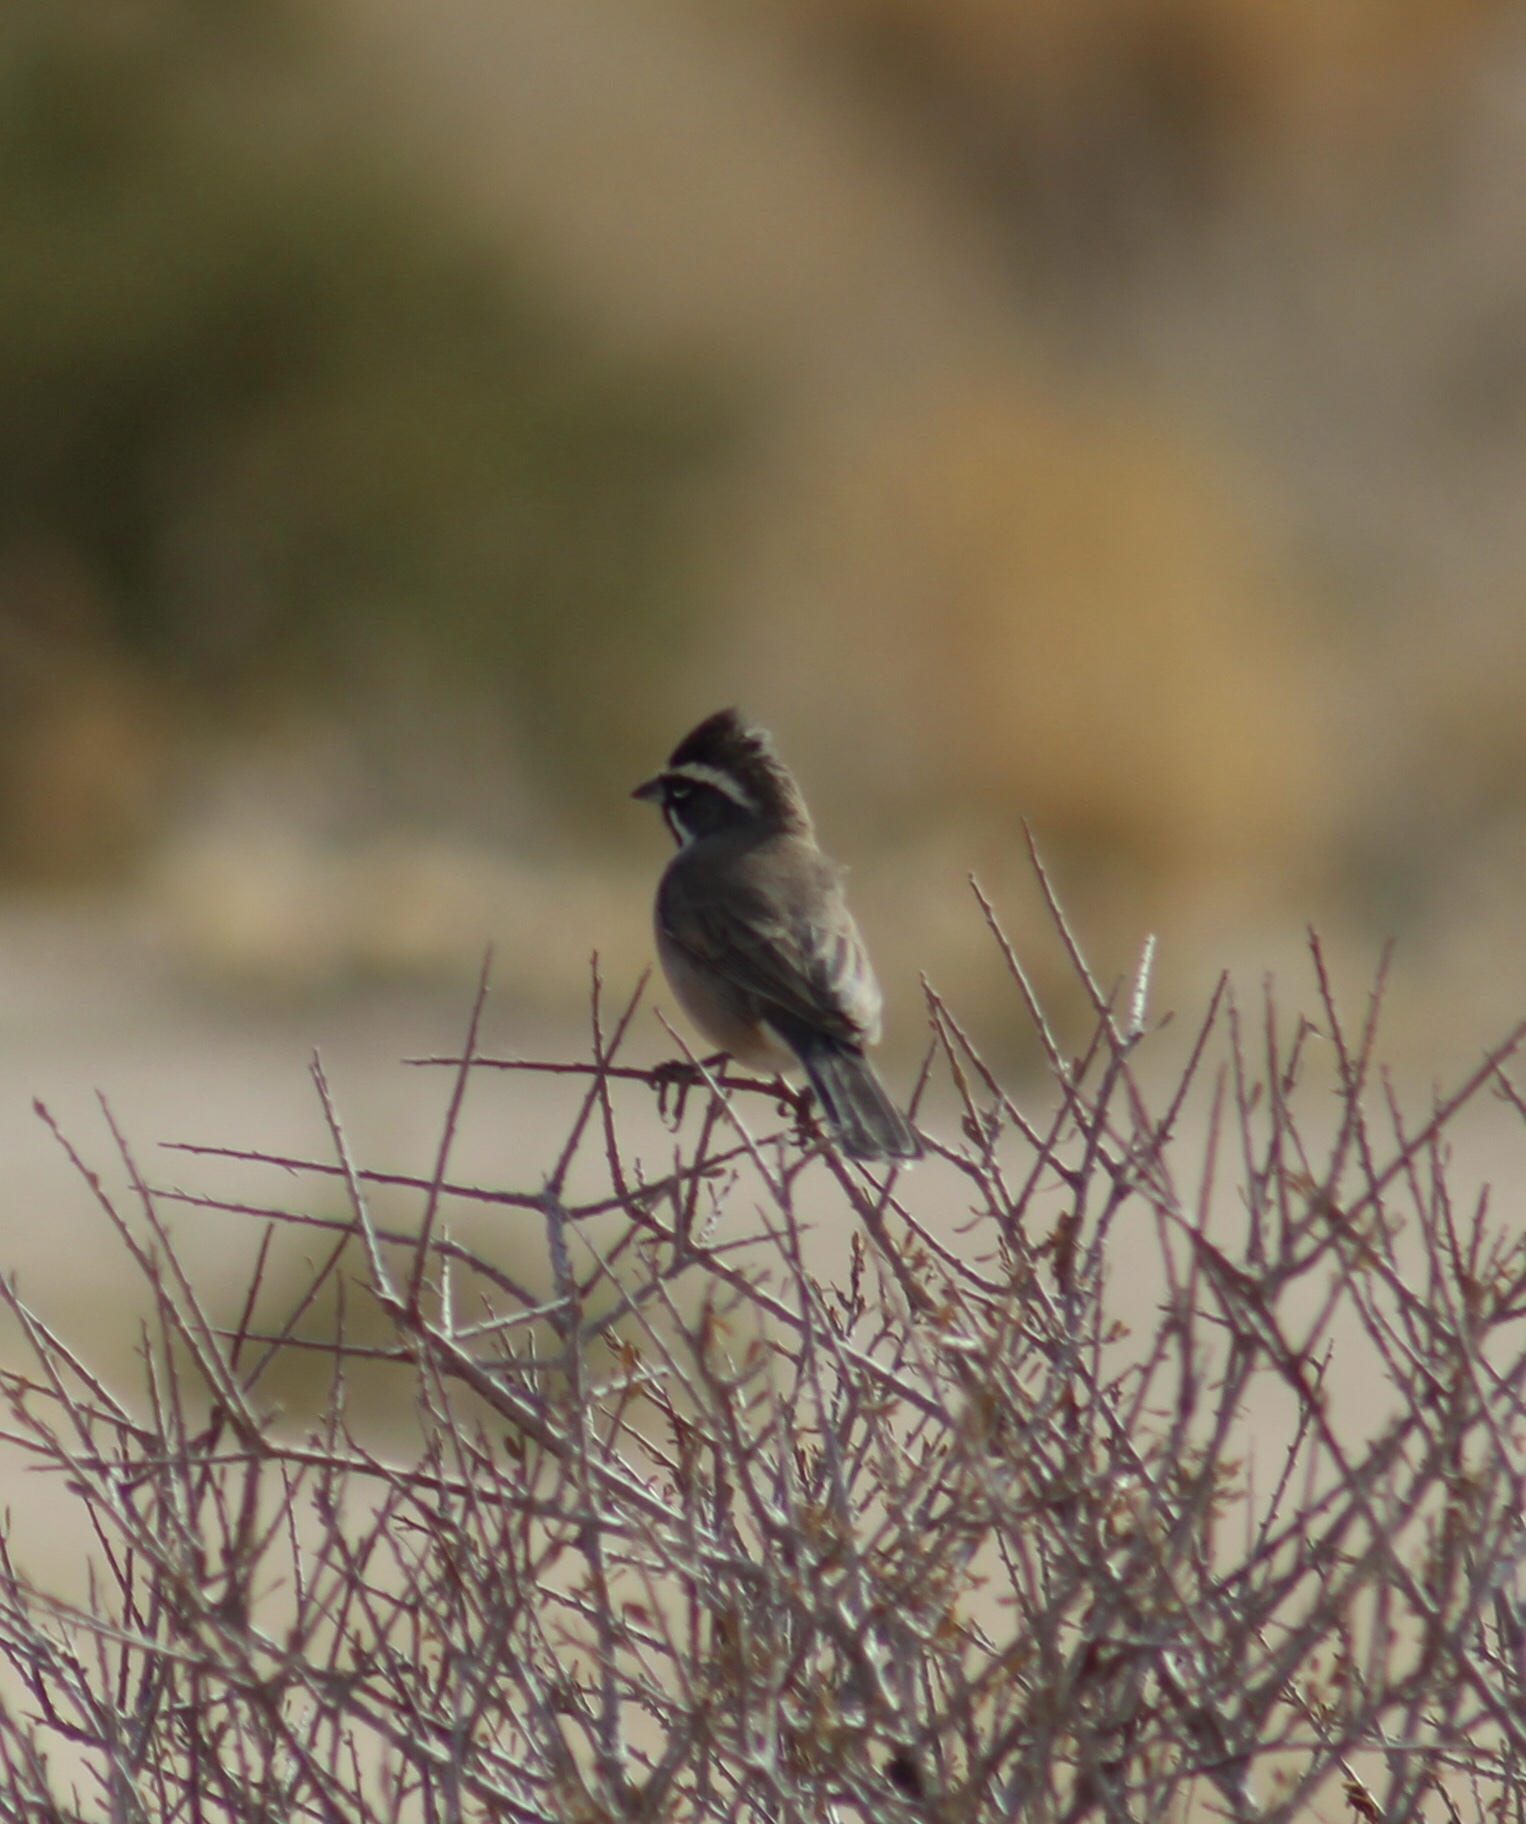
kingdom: Animalia
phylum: Chordata
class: Aves
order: Passeriformes
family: Passerellidae
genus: Amphispiza
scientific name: Amphispiza bilineata
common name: Black-throated sparrow
